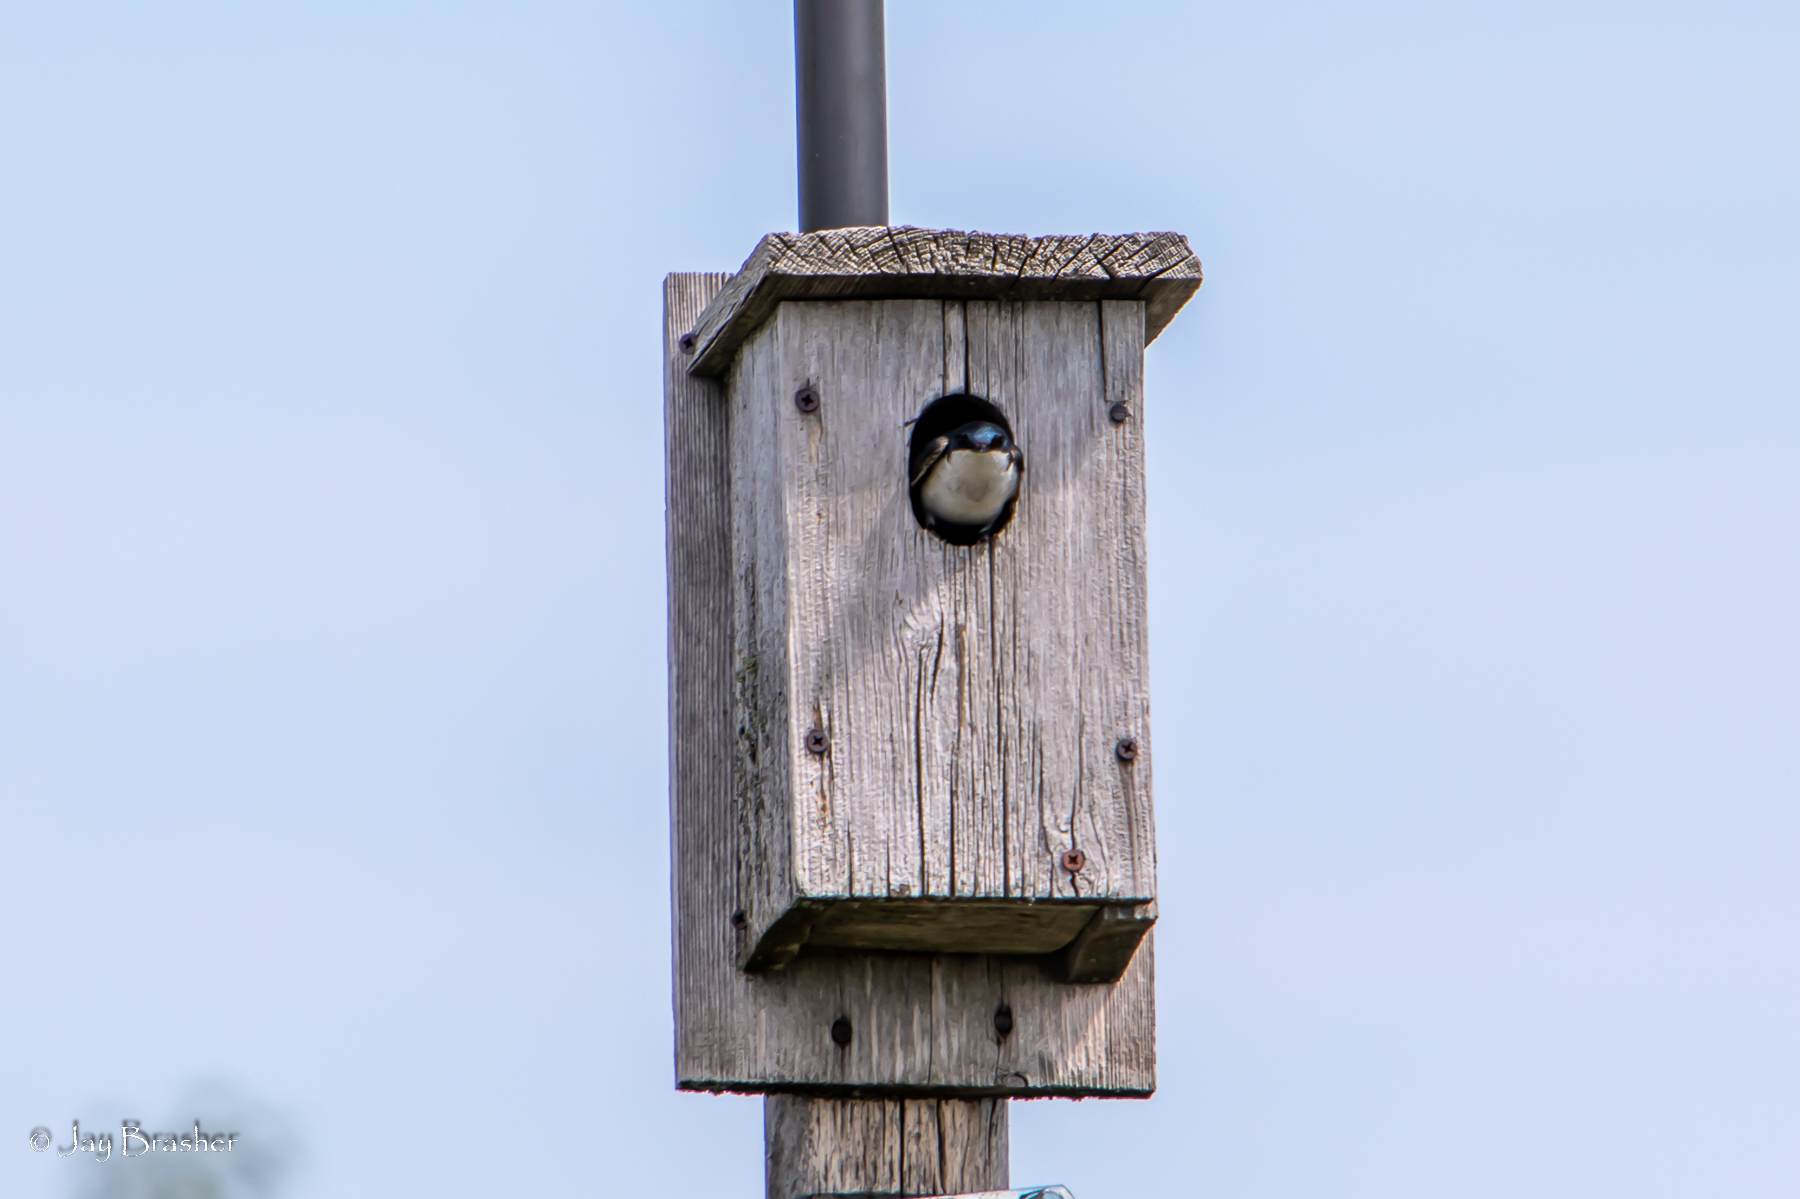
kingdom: Animalia
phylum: Chordata
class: Aves
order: Passeriformes
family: Hirundinidae
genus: Tachycineta
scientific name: Tachycineta bicolor
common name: Tree swallow
